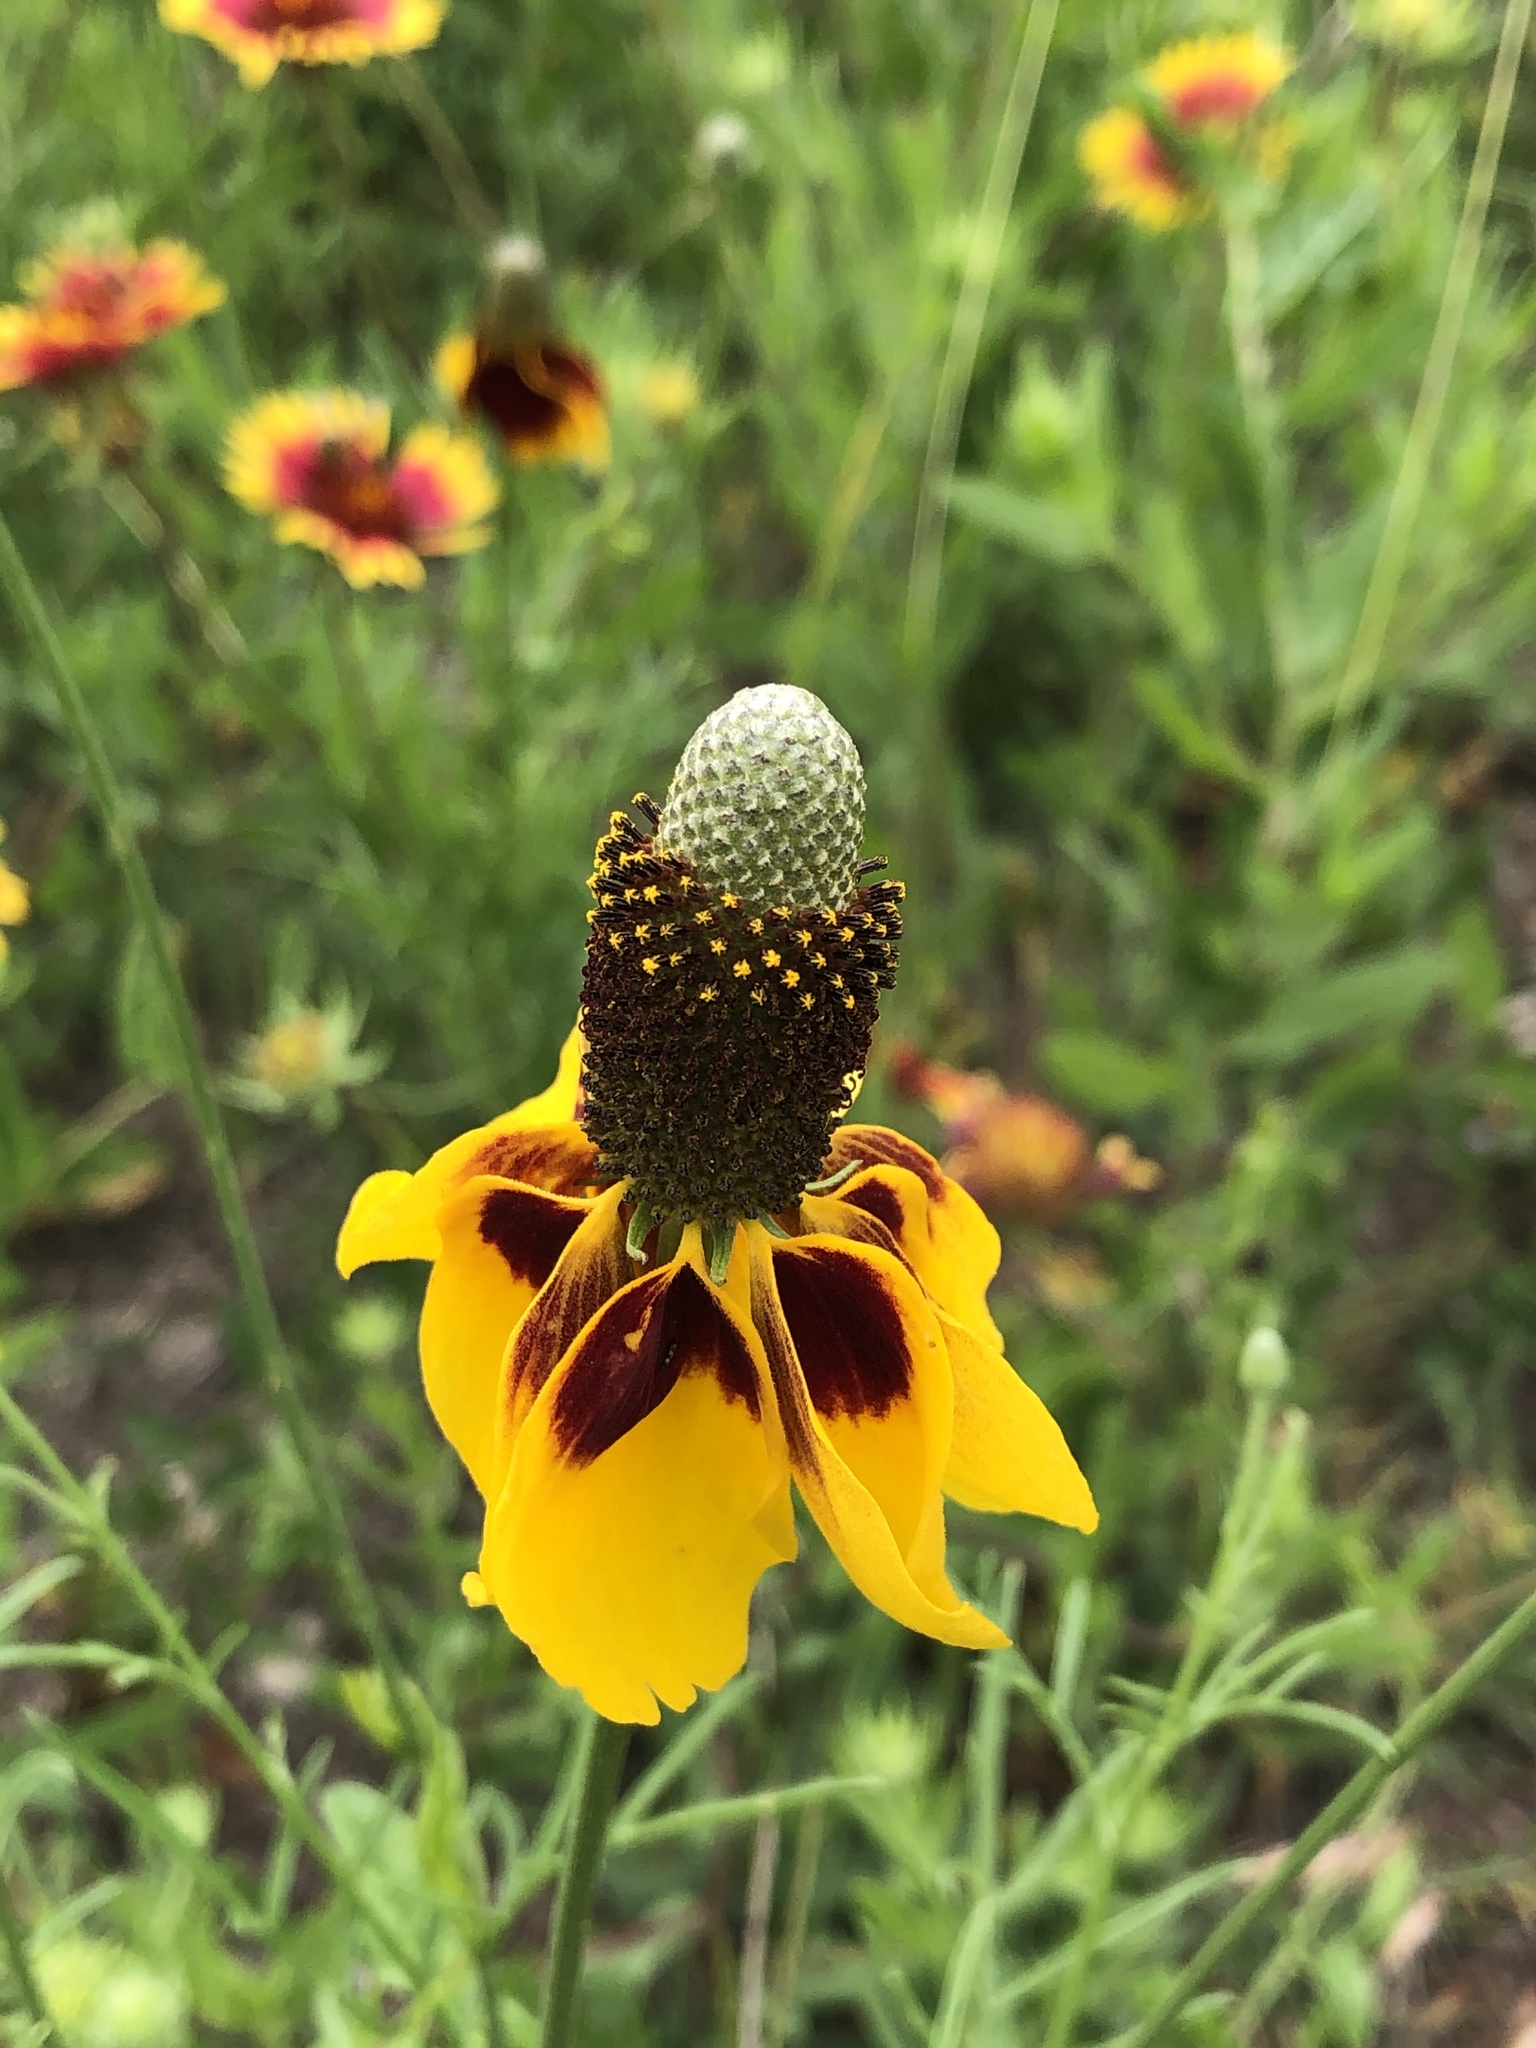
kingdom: Plantae
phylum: Tracheophyta
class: Magnoliopsida
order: Asterales
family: Asteraceae
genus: Ratibida
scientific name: Ratibida columnifera
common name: Prairie coneflower
